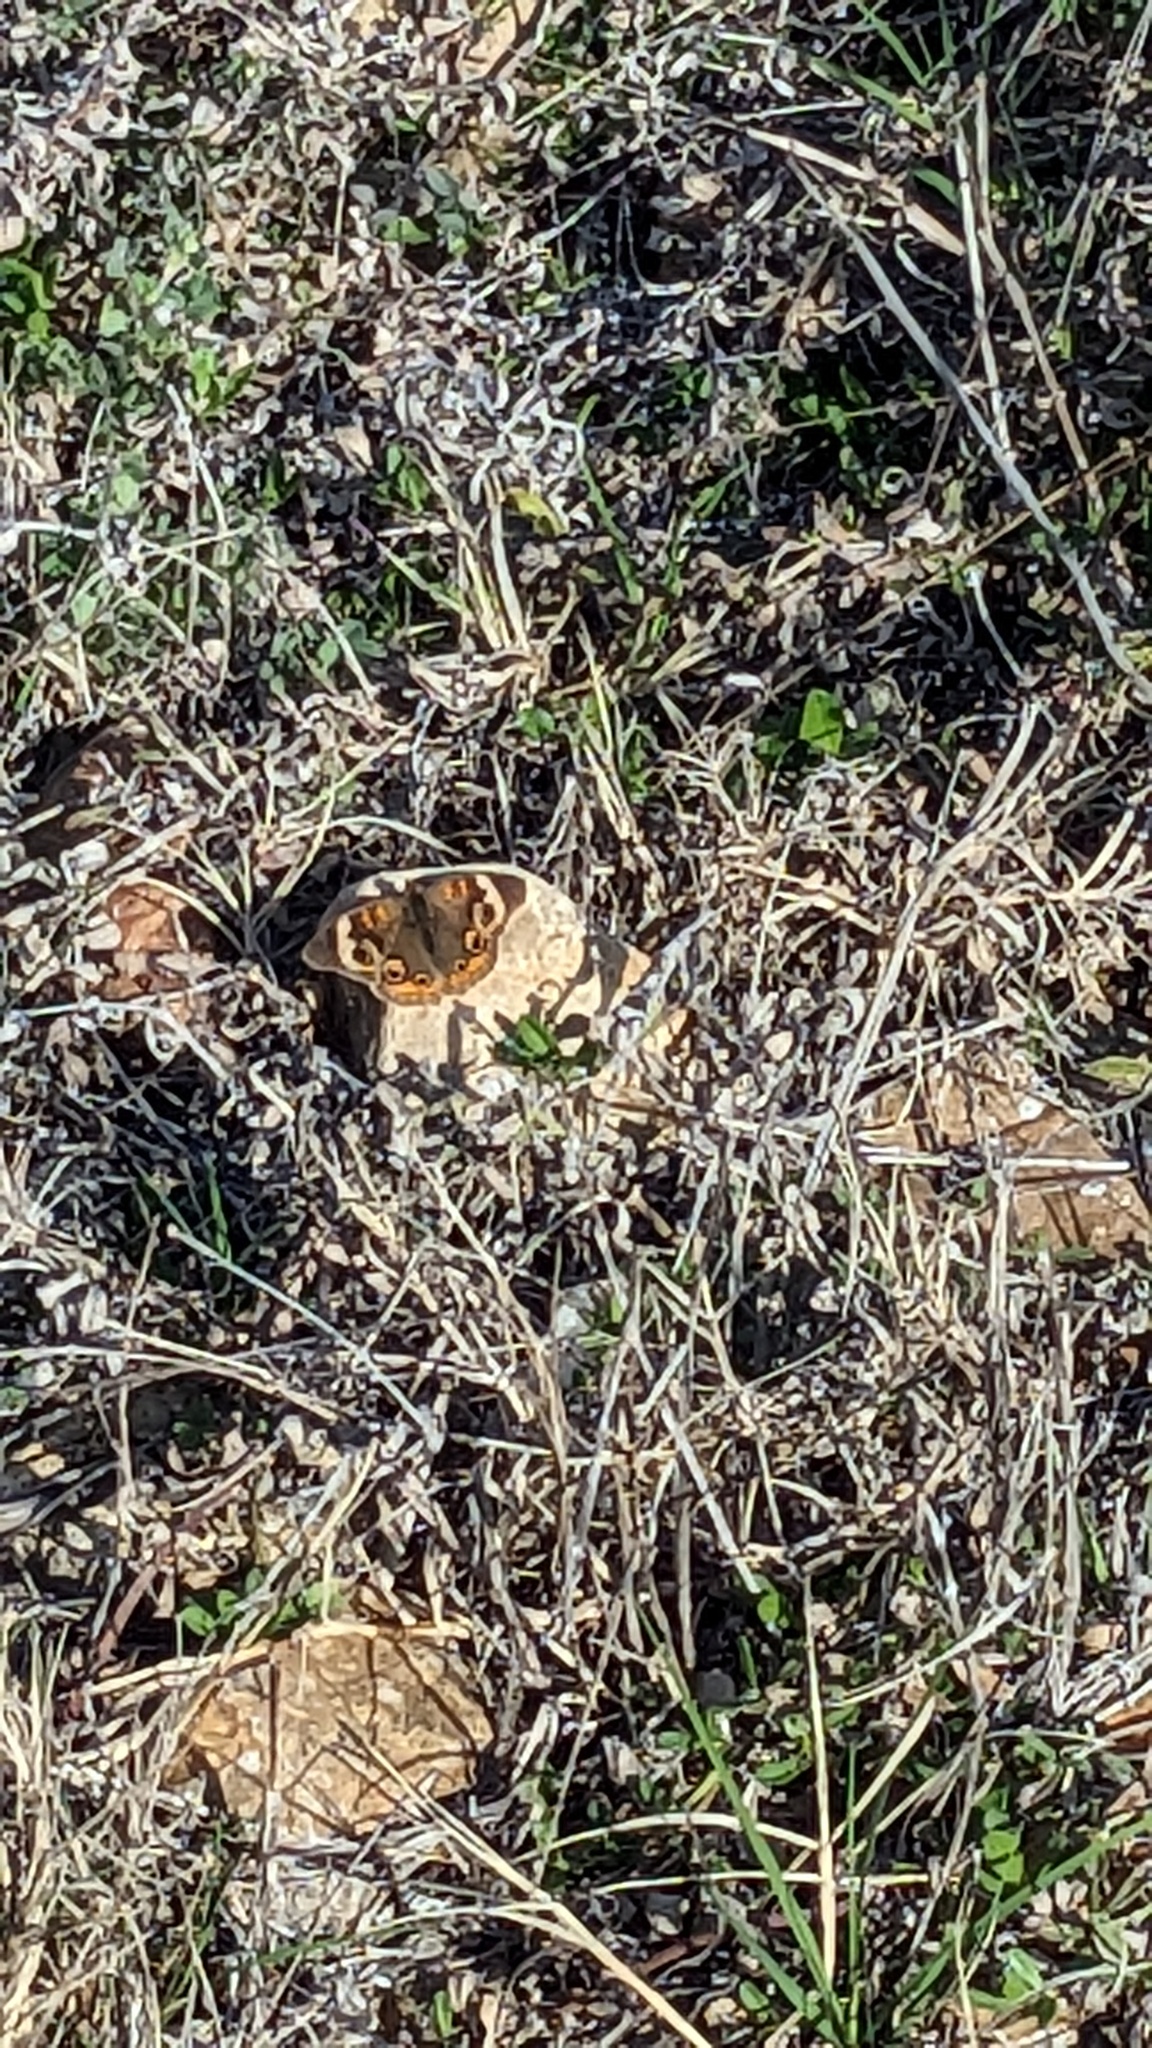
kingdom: Animalia
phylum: Arthropoda
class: Insecta
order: Lepidoptera
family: Nymphalidae
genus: Junonia
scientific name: Junonia coenia
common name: Common buckeye
